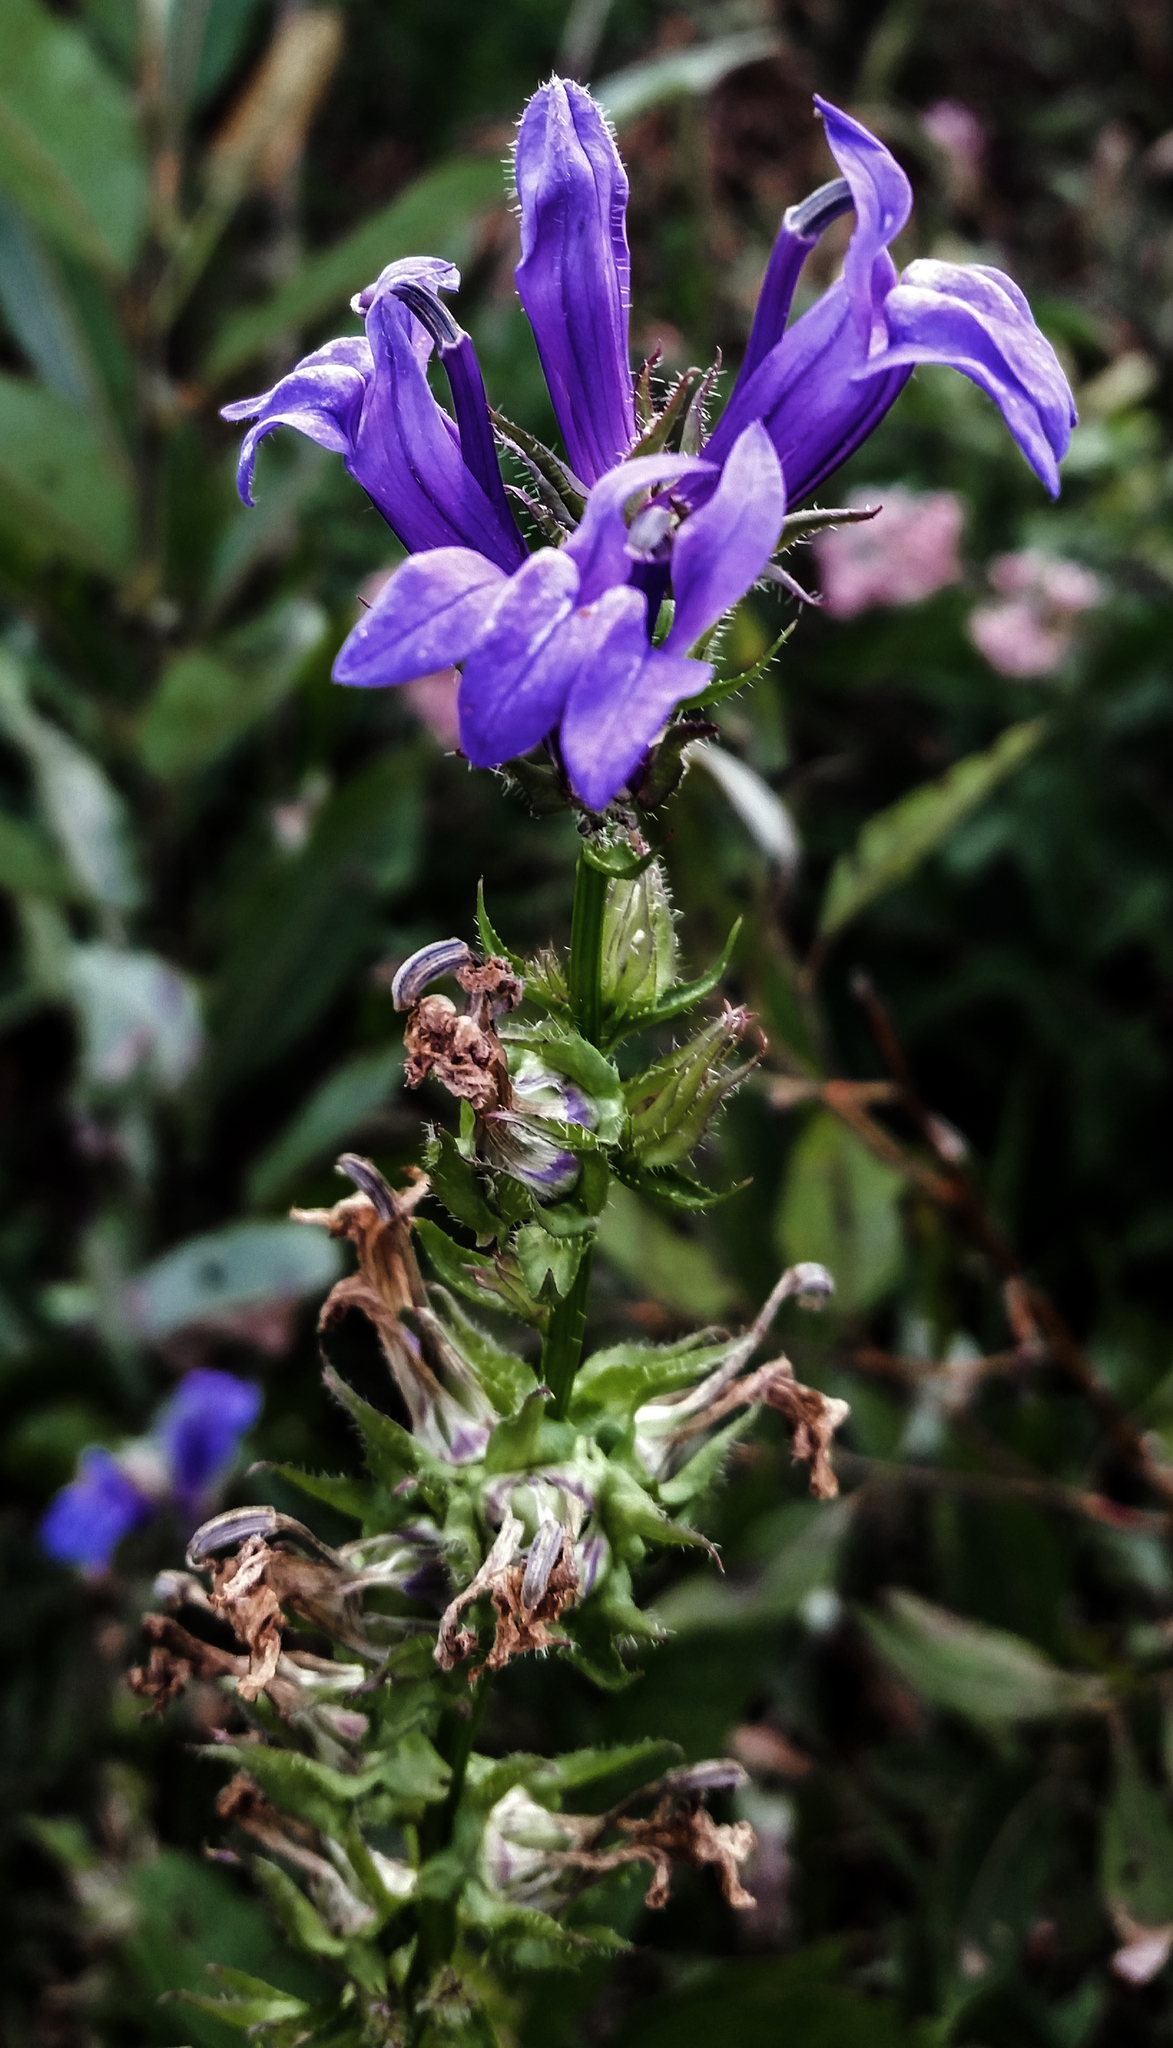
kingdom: Plantae
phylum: Tracheophyta
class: Magnoliopsida
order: Asterales
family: Campanulaceae
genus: Lobelia
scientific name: Lobelia siphilitica
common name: Great lobelia
